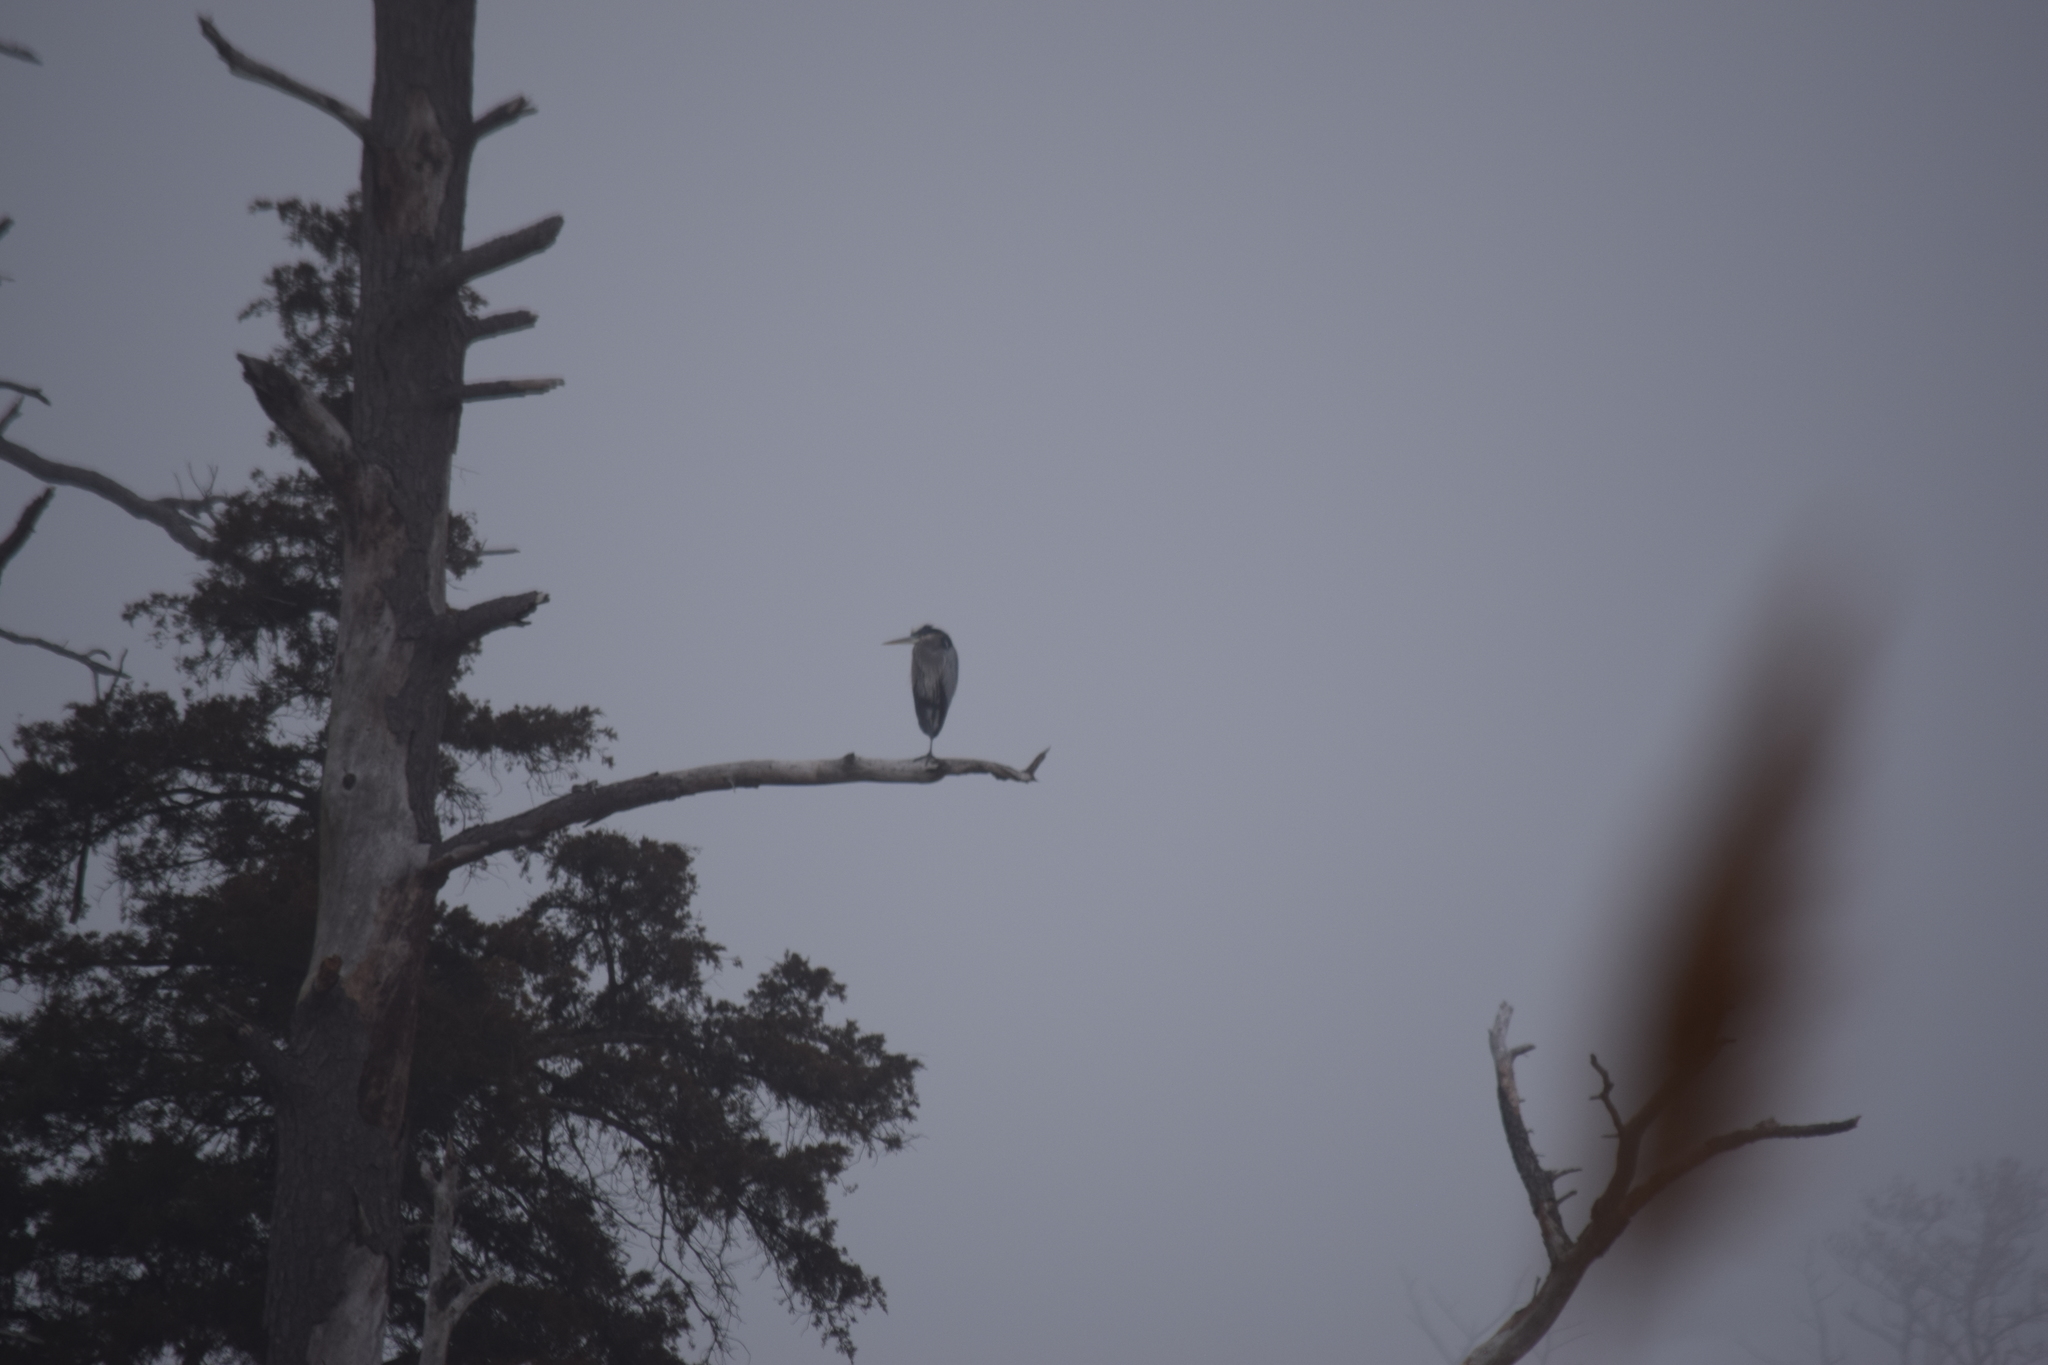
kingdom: Animalia
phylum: Chordata
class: Aves
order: Pelecaniformes
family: Ardeidae
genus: Ardea
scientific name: Ardea herodias
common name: Great blue heron
